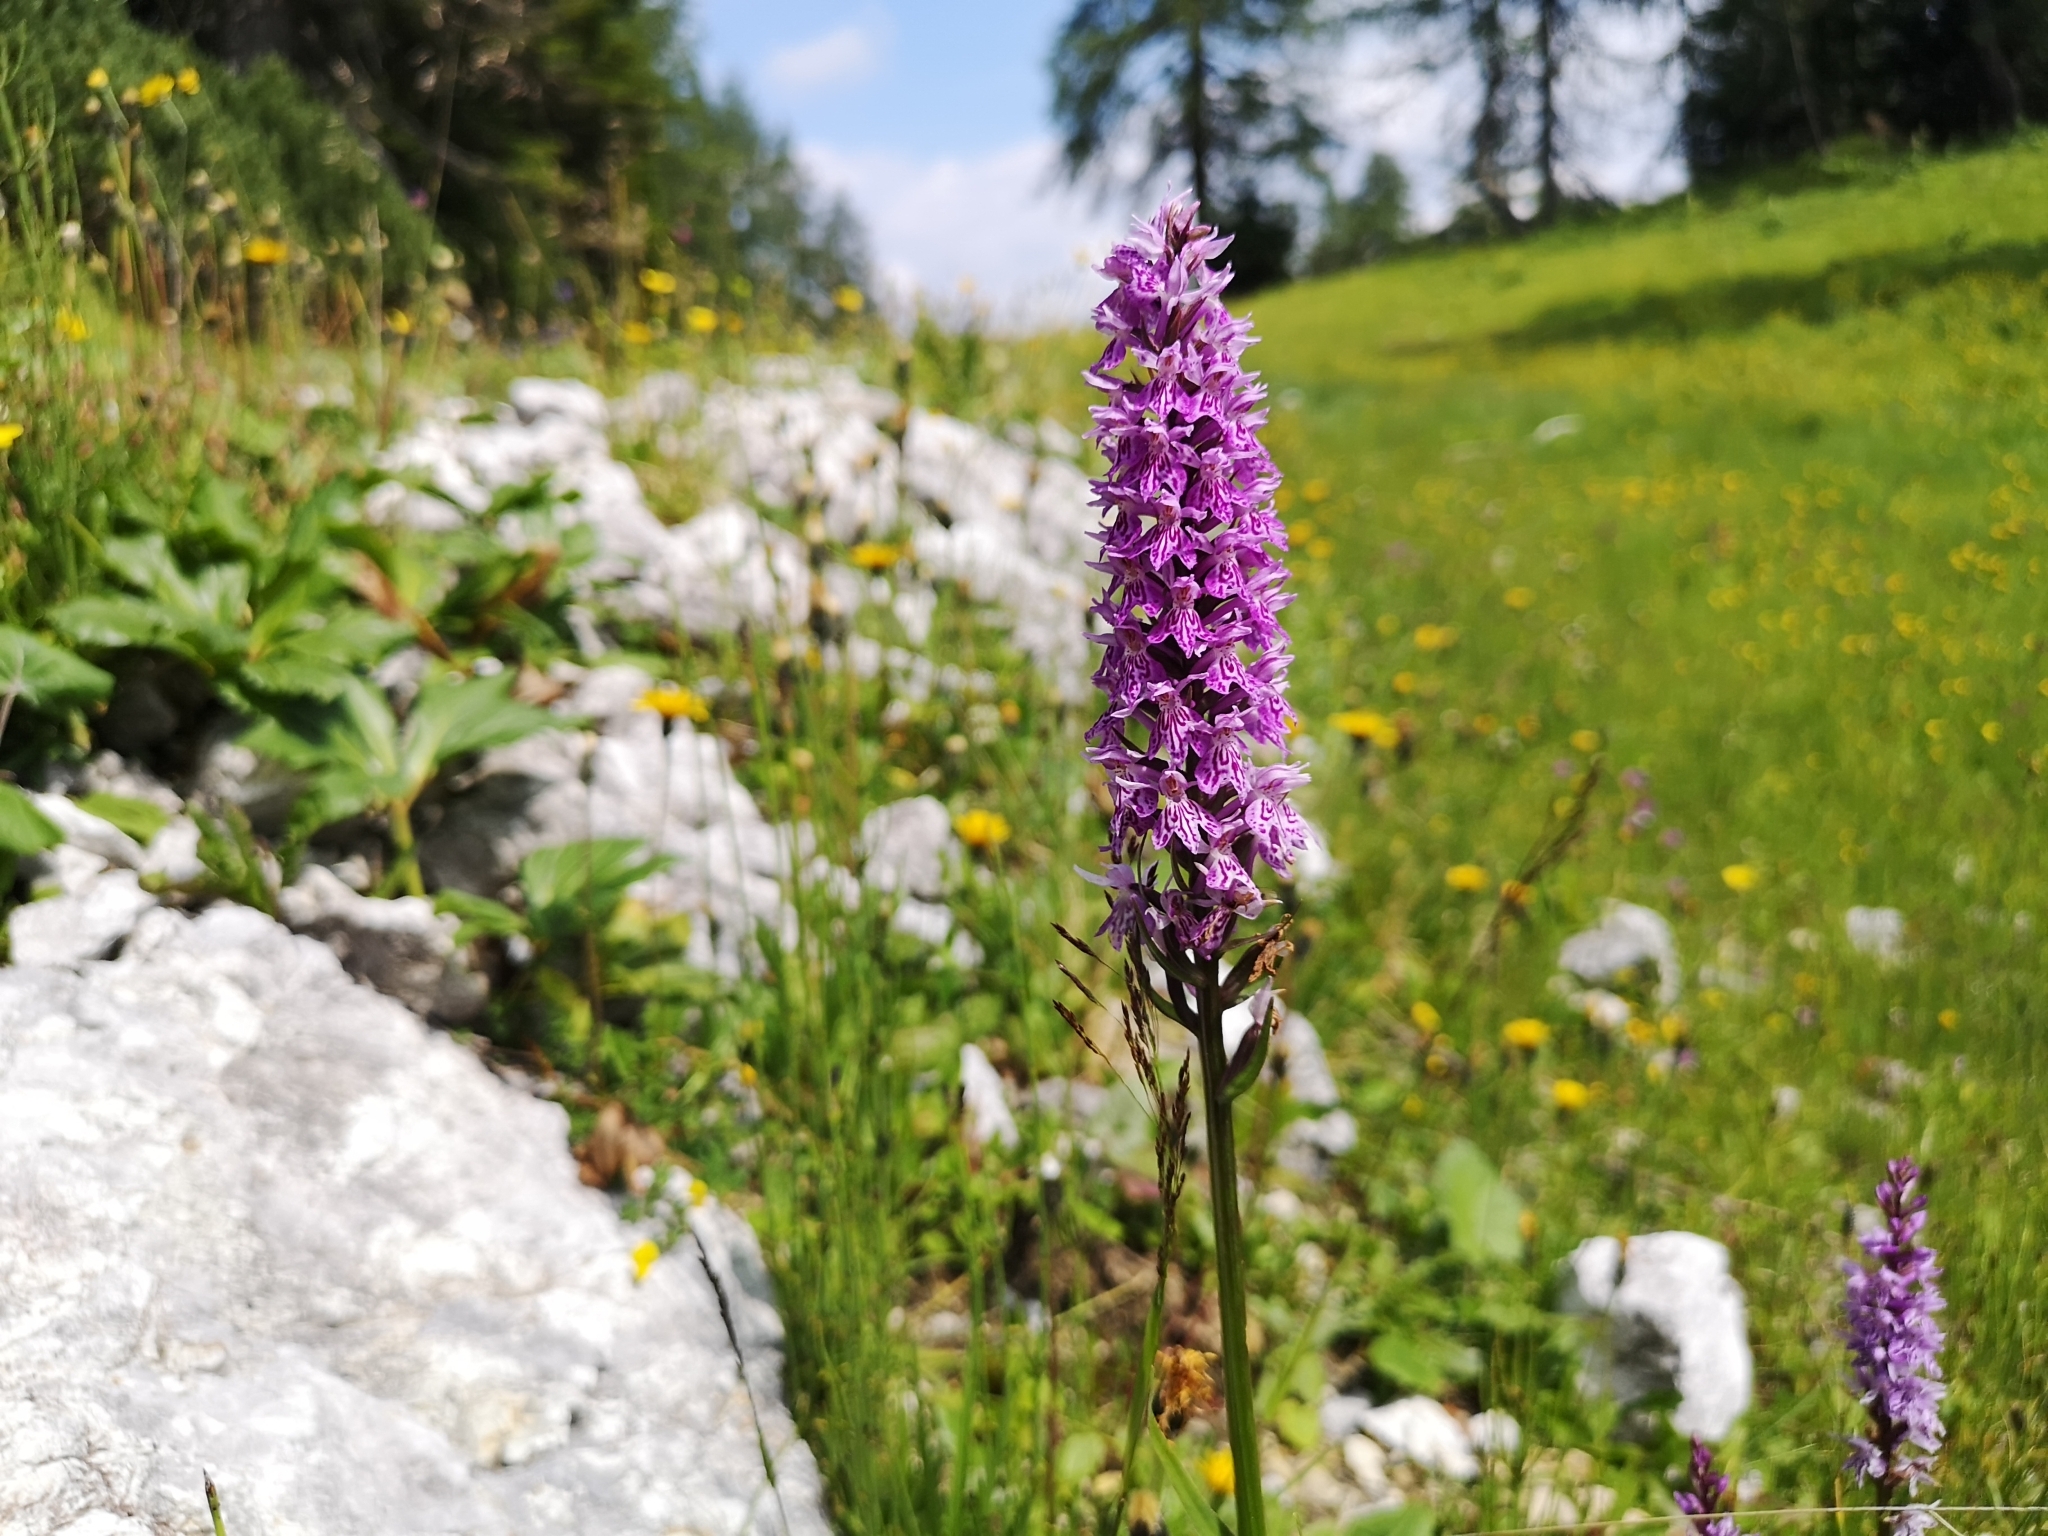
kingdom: Plantae
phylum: Tracheophyta
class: Liliopsida
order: Asparagales
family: Orchidaceae
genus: Dactylorhiza
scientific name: Dactylorhiza maculata
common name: Heath spotted-orchid
